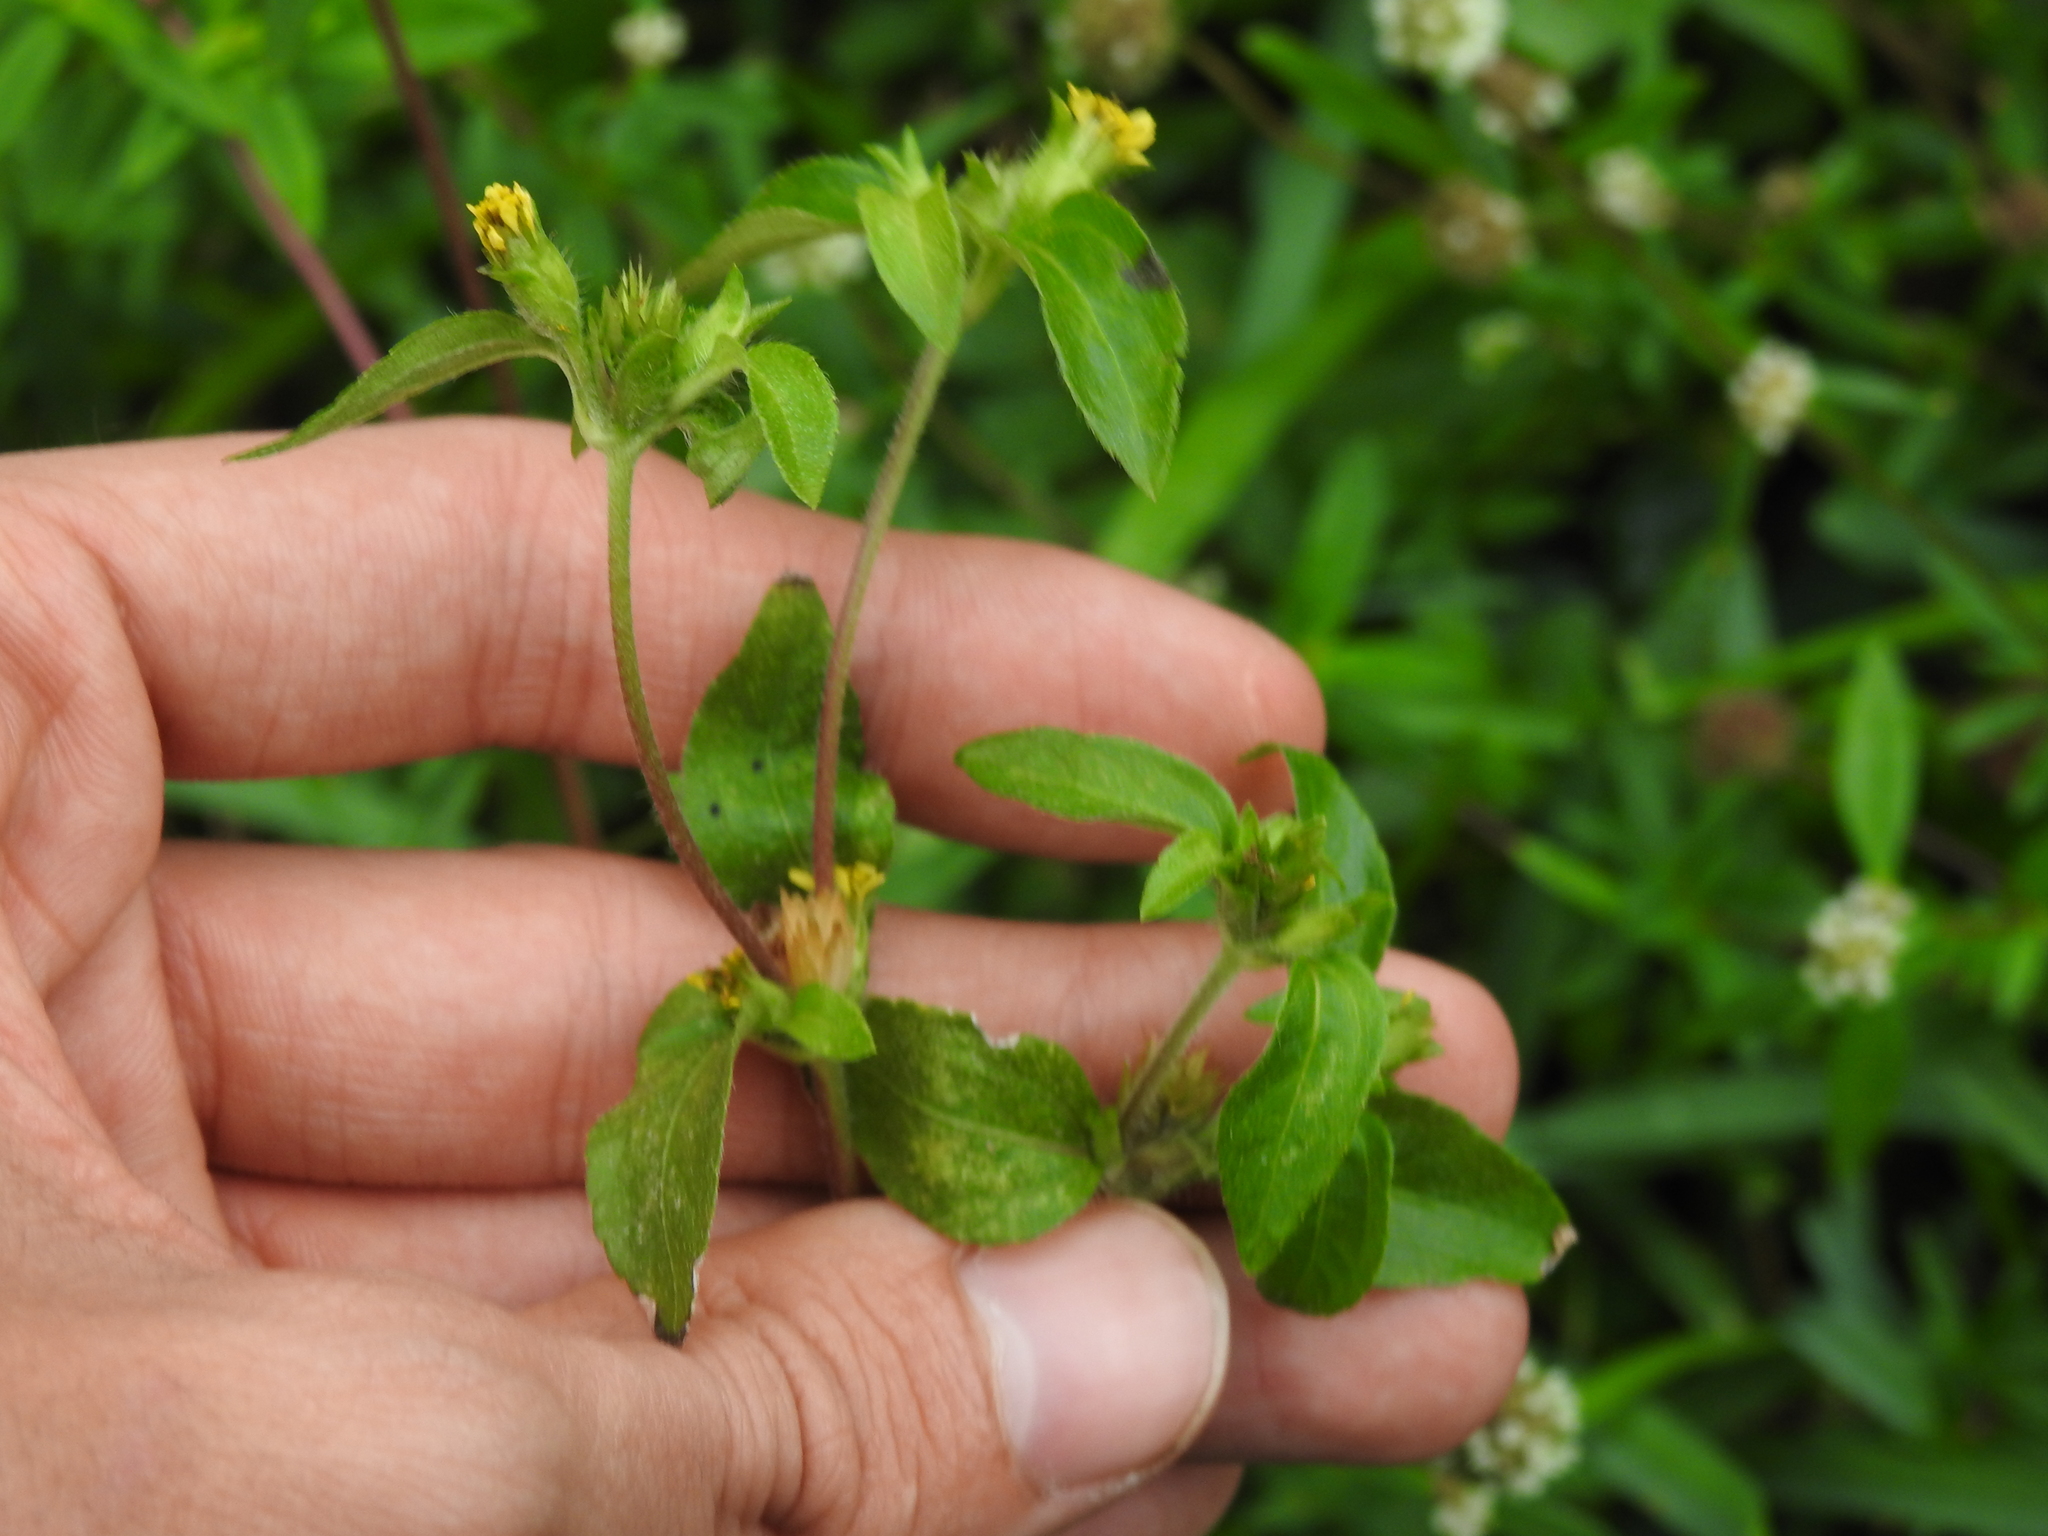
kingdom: Plantae
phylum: Tracheophyta
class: Magnoliopsida
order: Asterales
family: Asteraceae
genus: Synedrella
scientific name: Synedrella nodiflora
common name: Nodeweed
